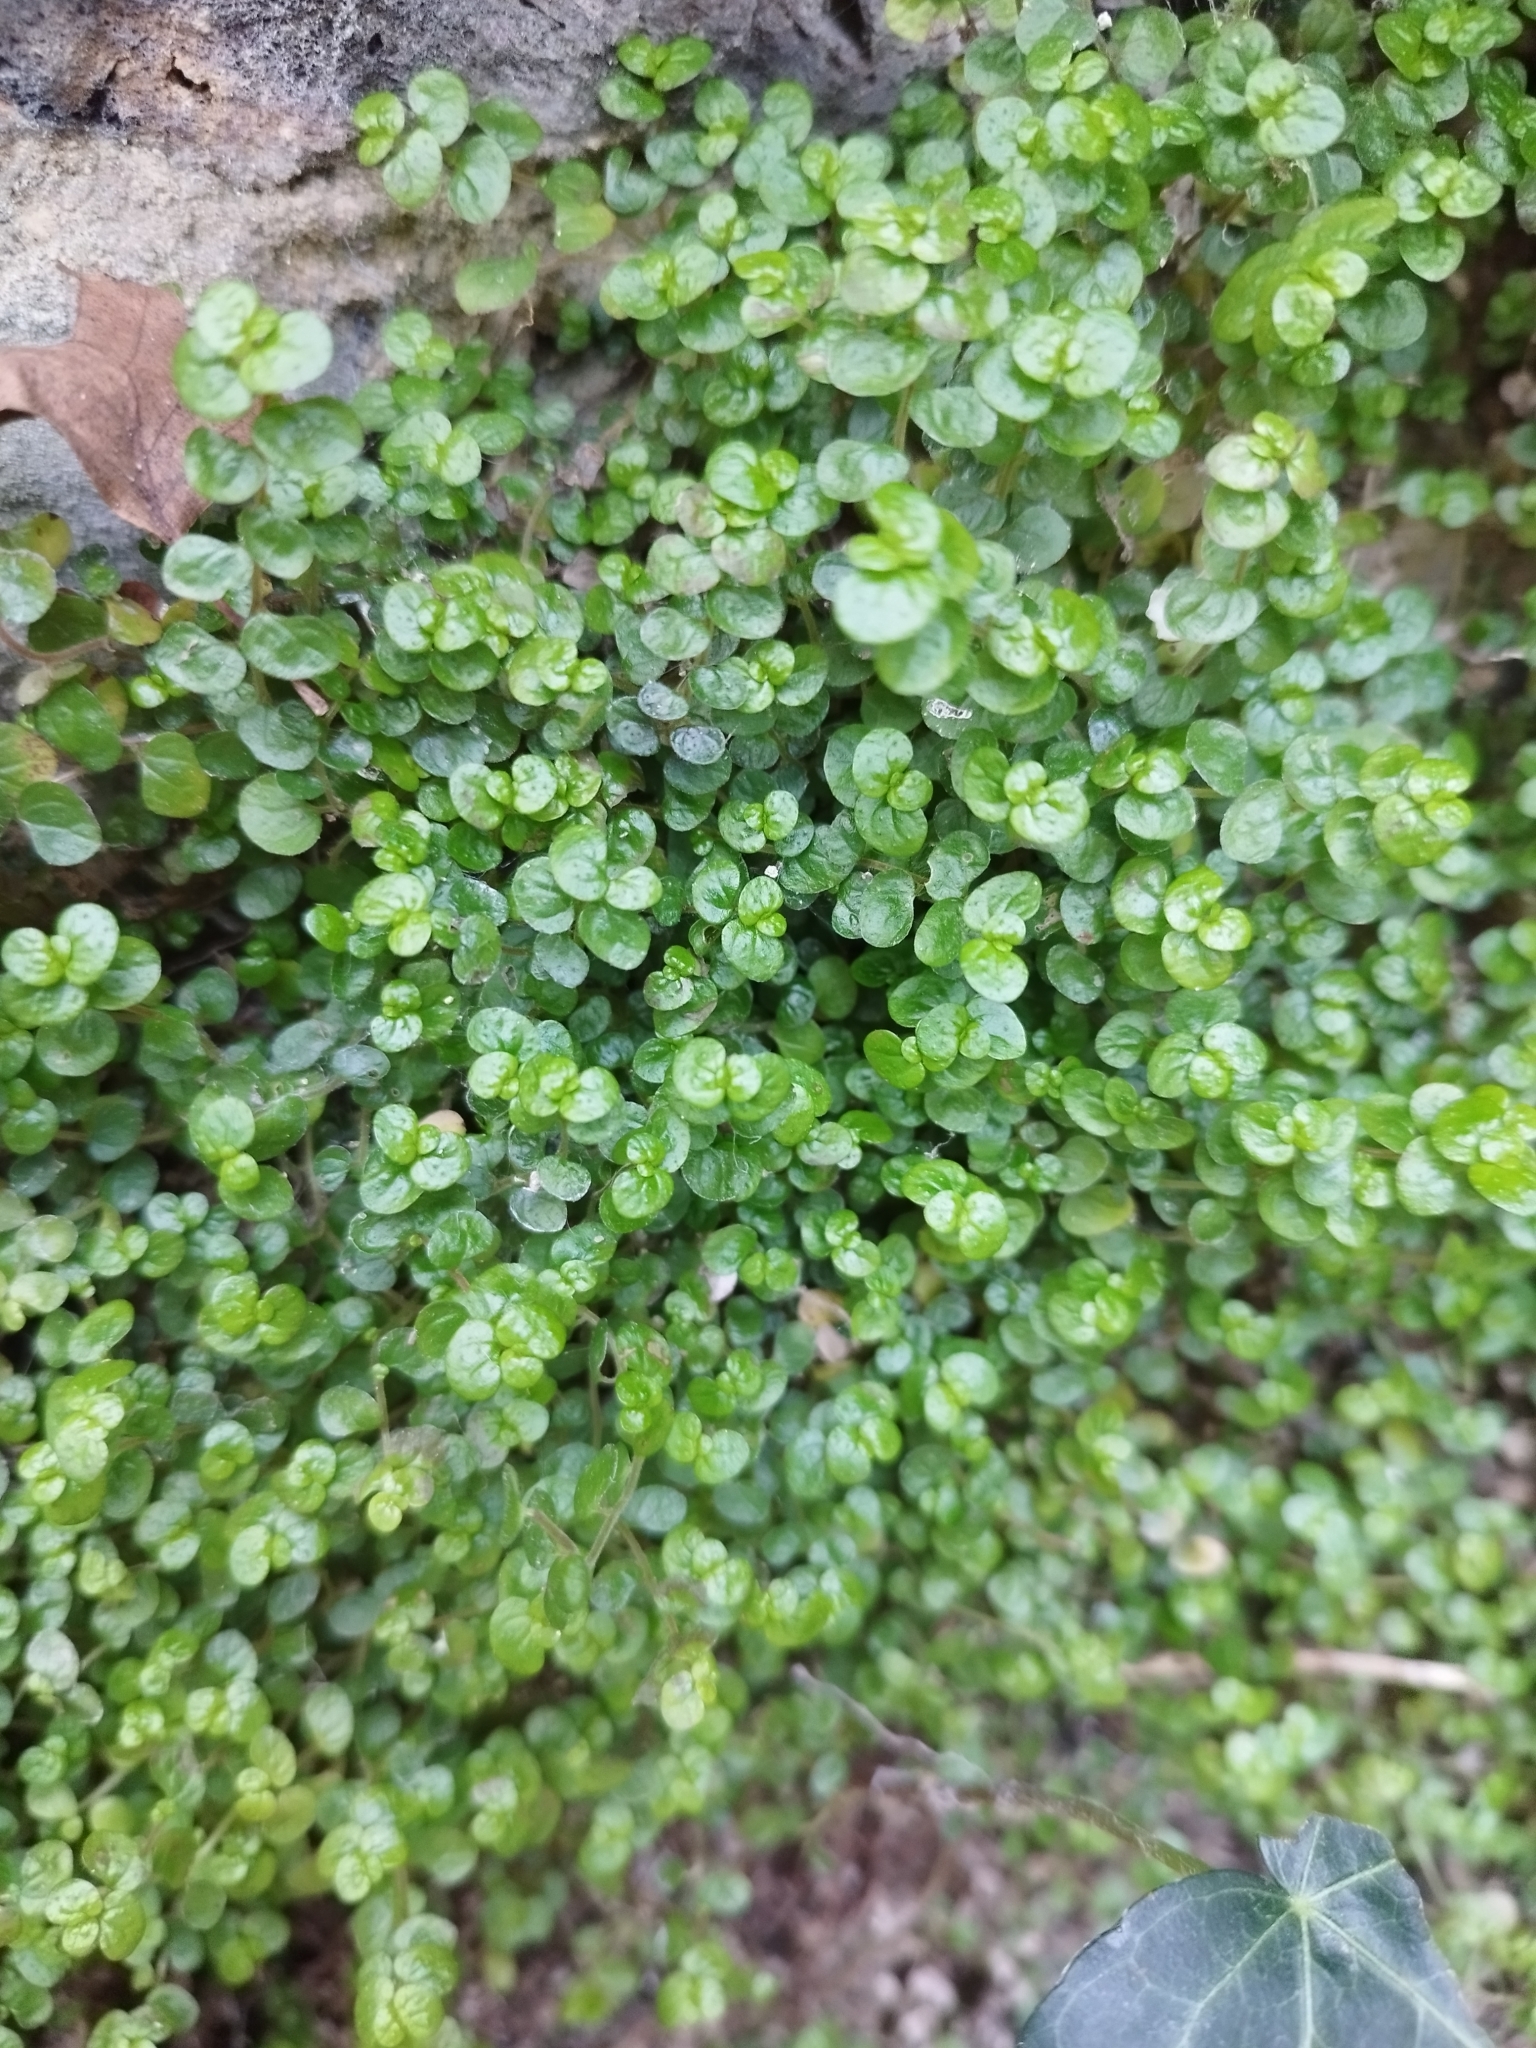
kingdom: Plantae
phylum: Tracheophyta
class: Magnoliopsida
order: Rosales
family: Urticaceae
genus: Soleirolia
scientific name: Soleirolia soleirolii
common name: Mind-your-own-business
